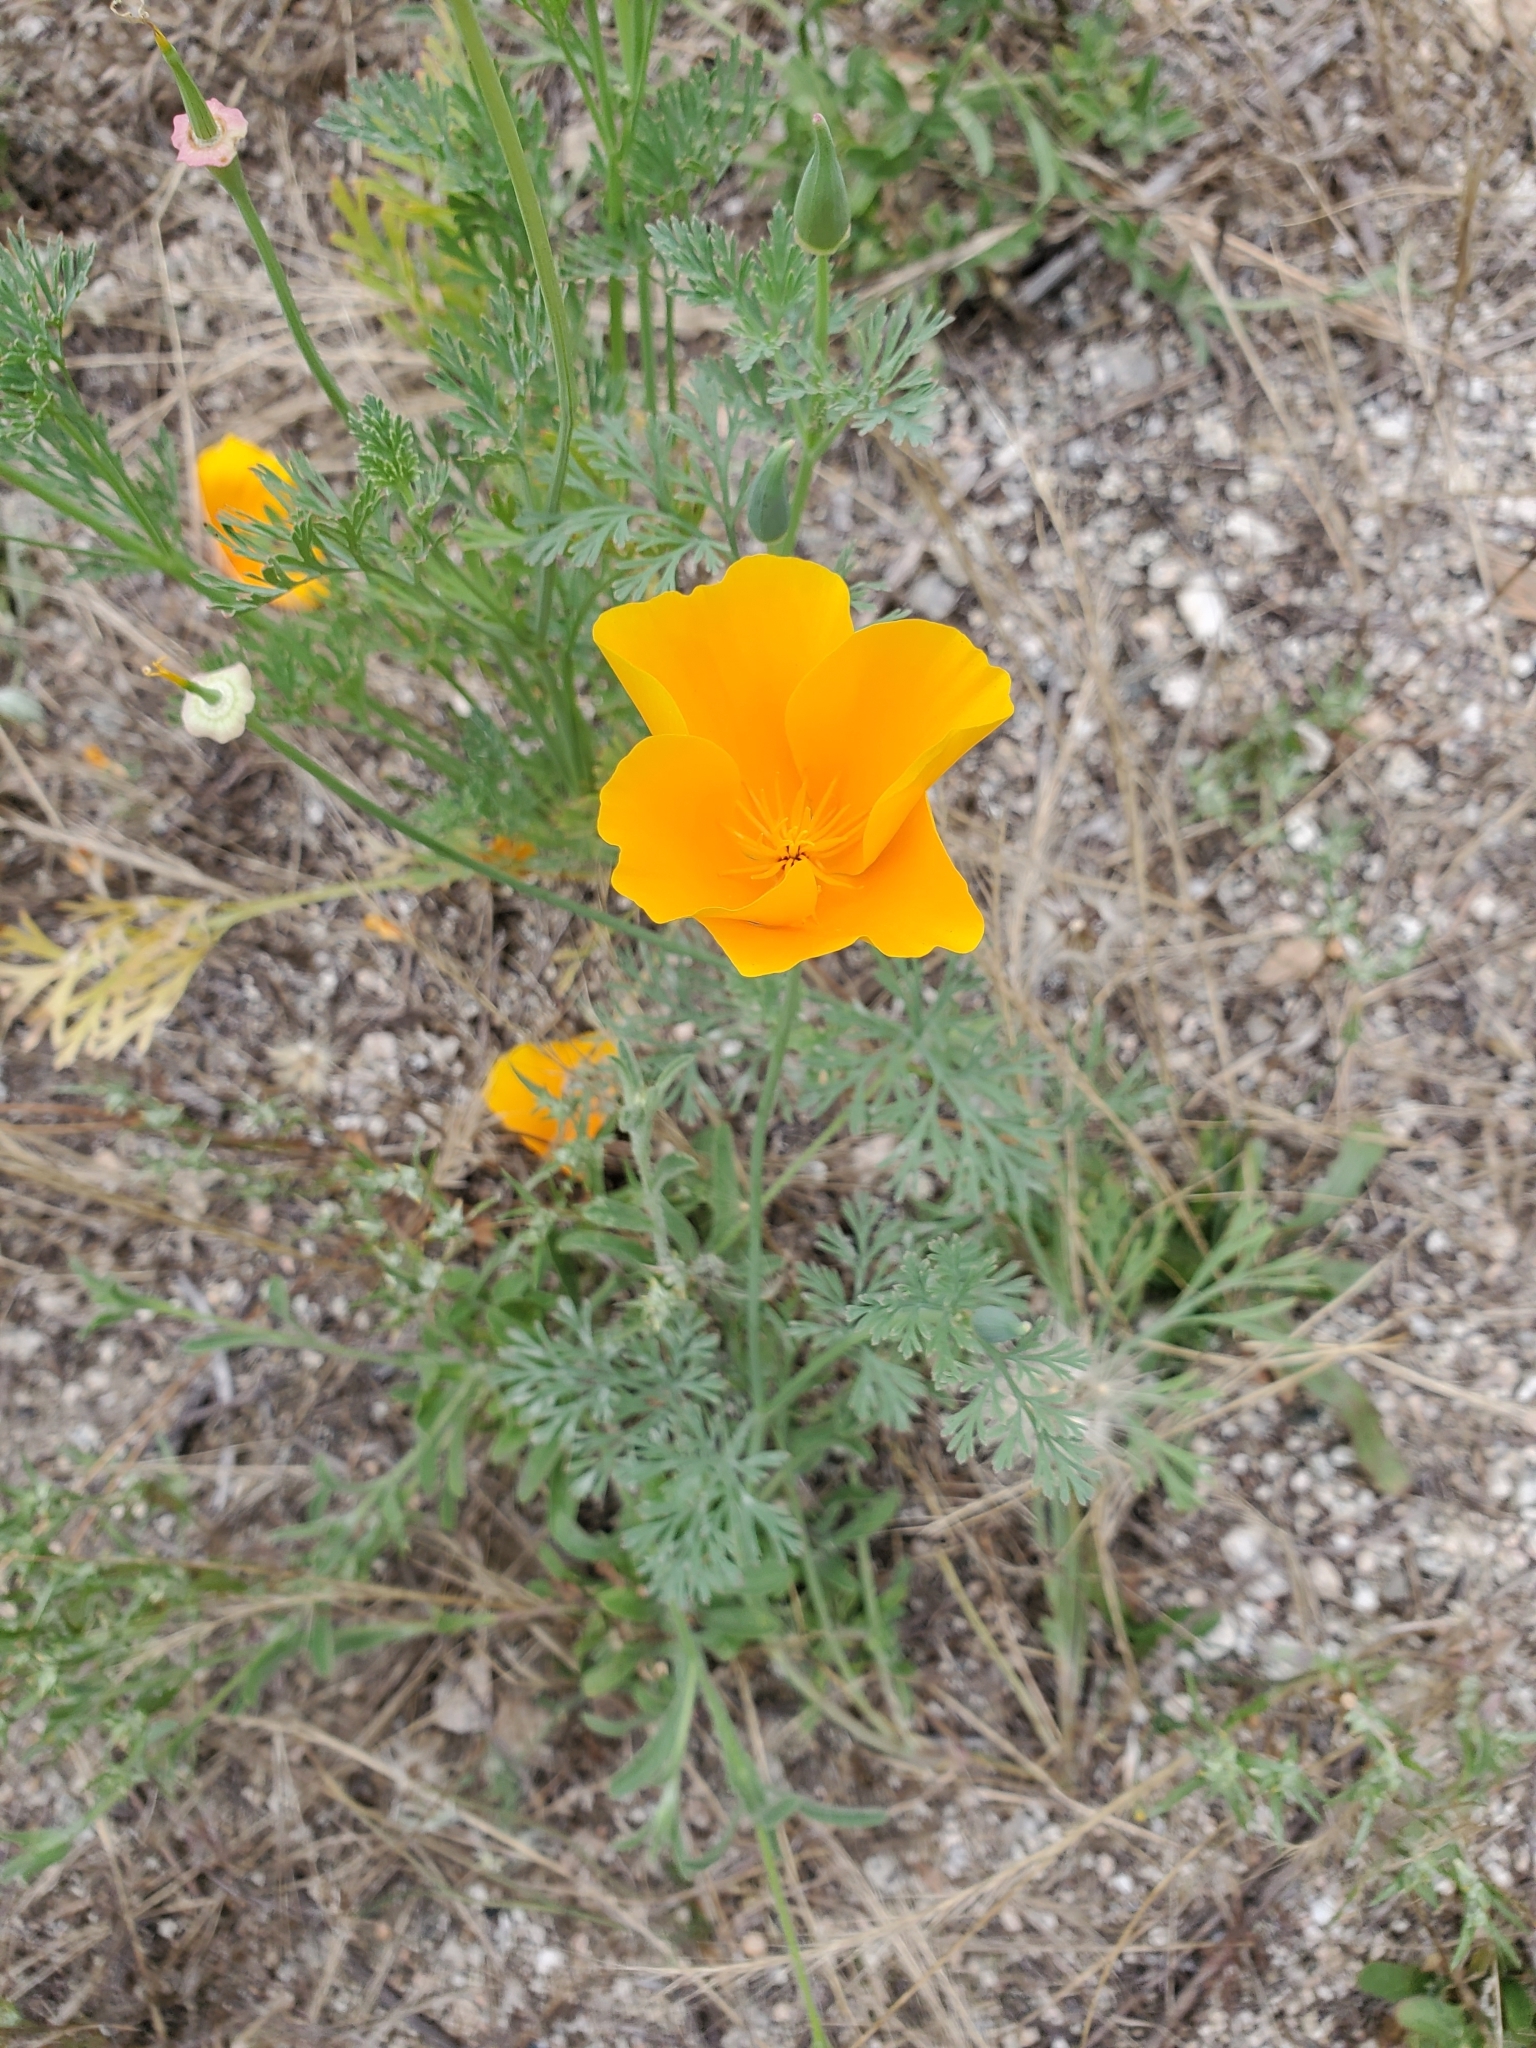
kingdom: Plantae
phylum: Tracheophyta
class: Magnoliopsida
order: Ranunculales
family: Papaveraceae
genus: Eschscholzia
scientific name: Eschscholzia californica
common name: California poppy
